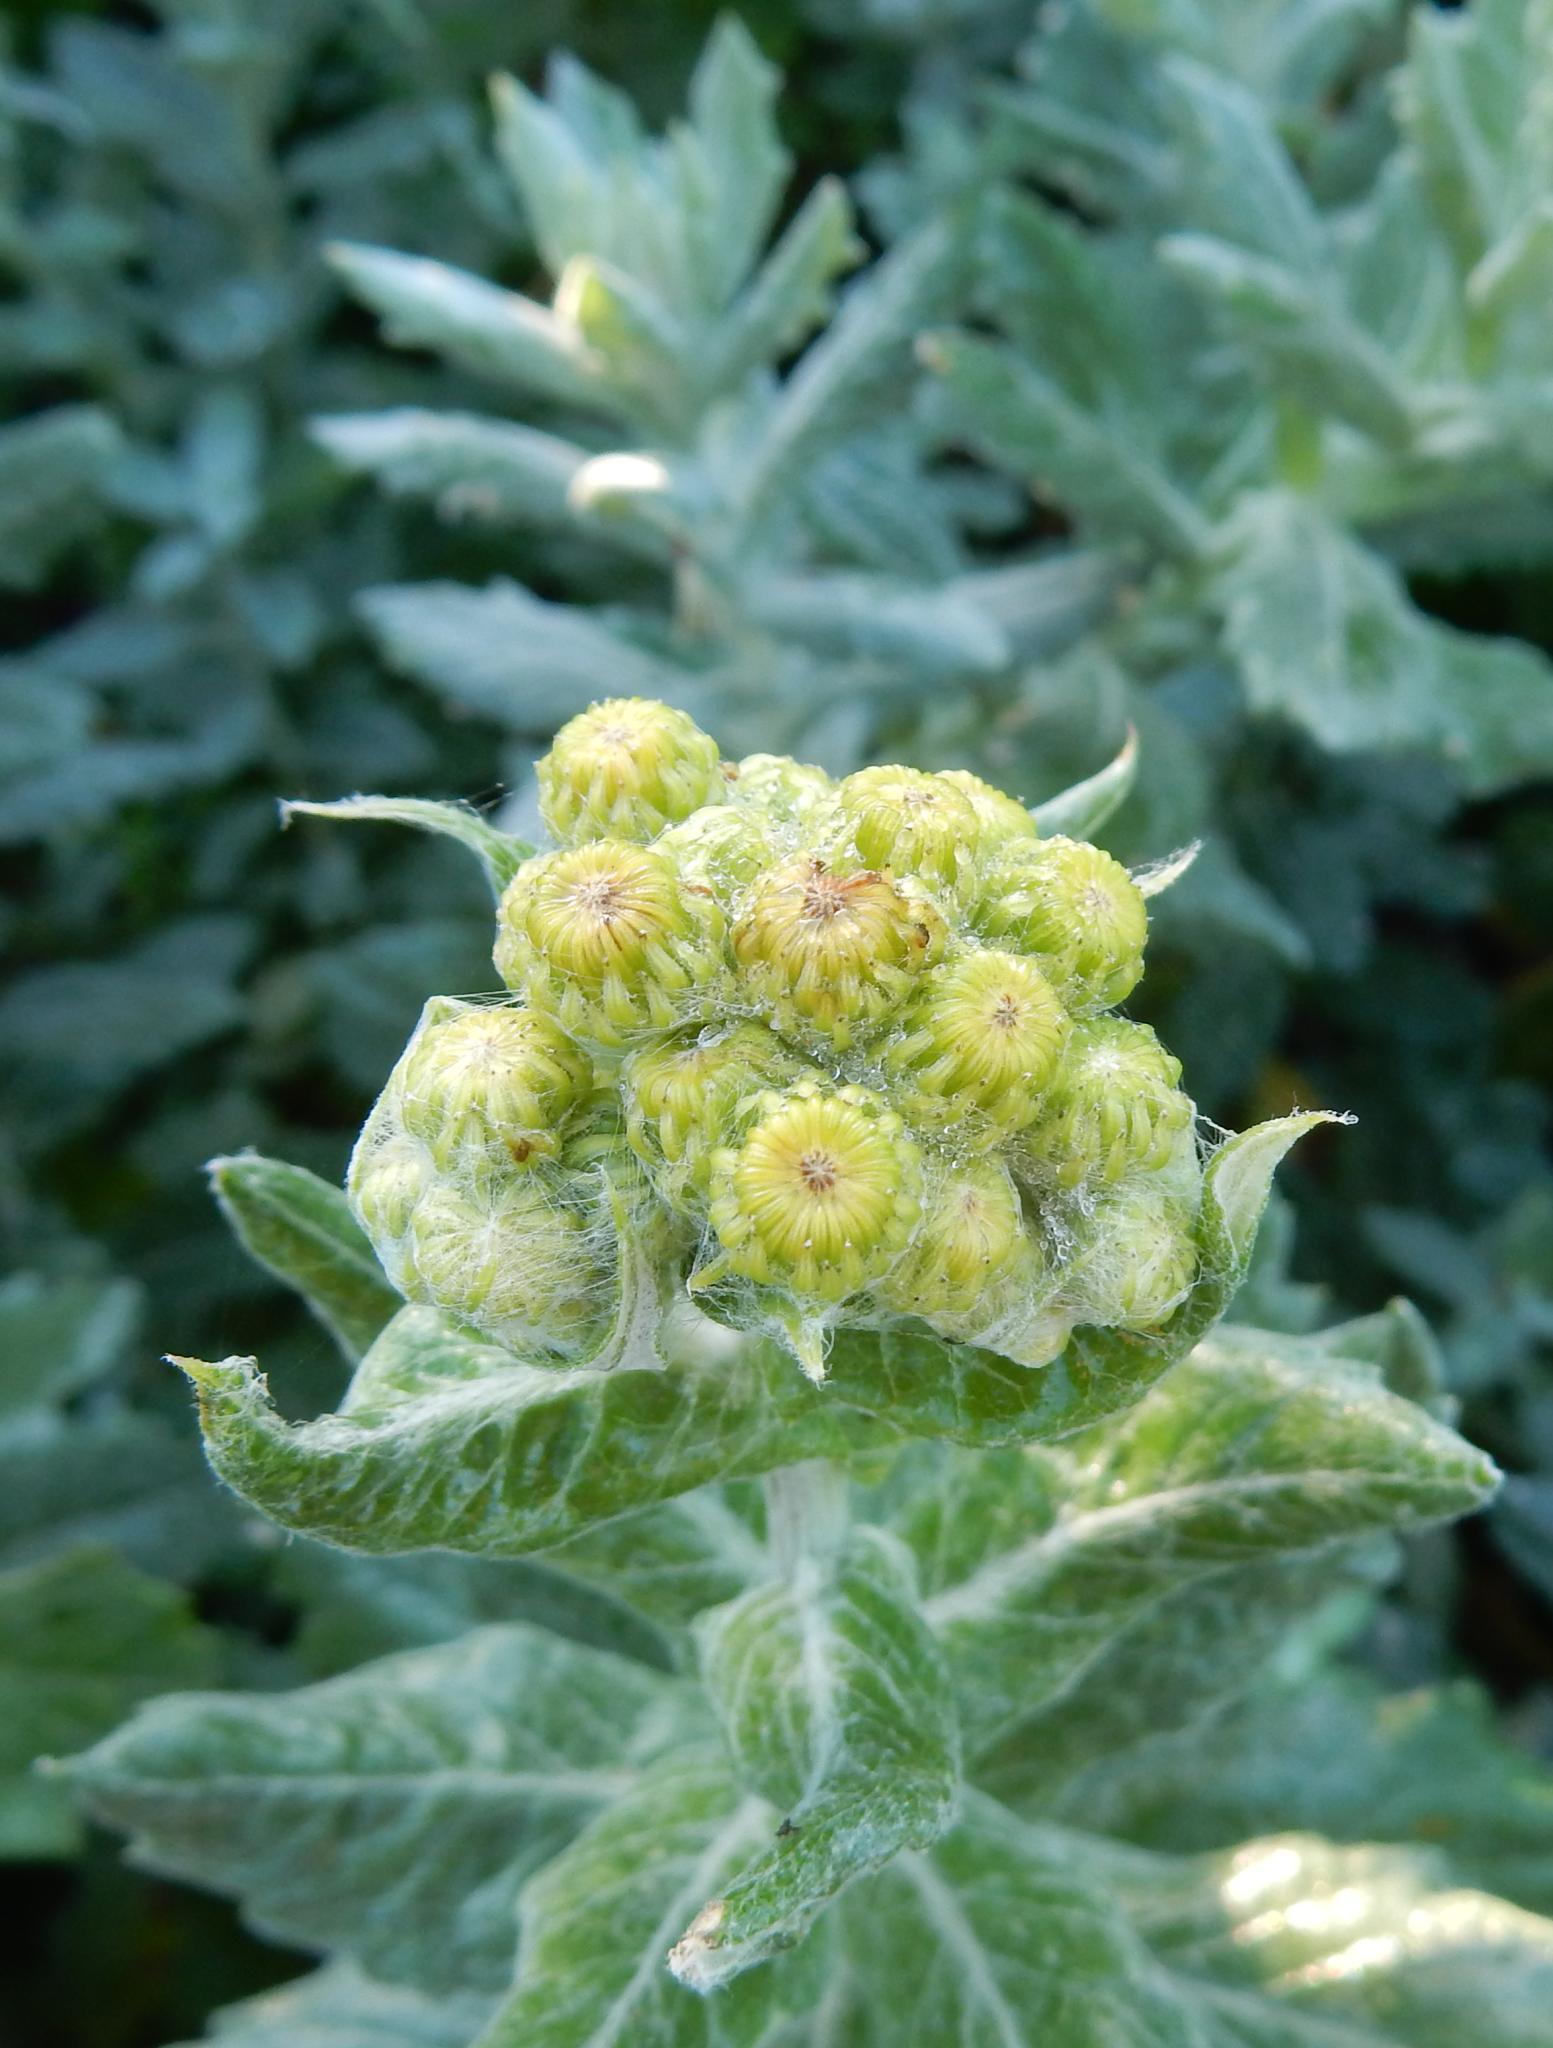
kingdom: Plantae
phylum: Tracheophyta
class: Magnoliopsida
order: Asterales
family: Asteraceae
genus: Senecio
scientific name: Senecio halimifolius
